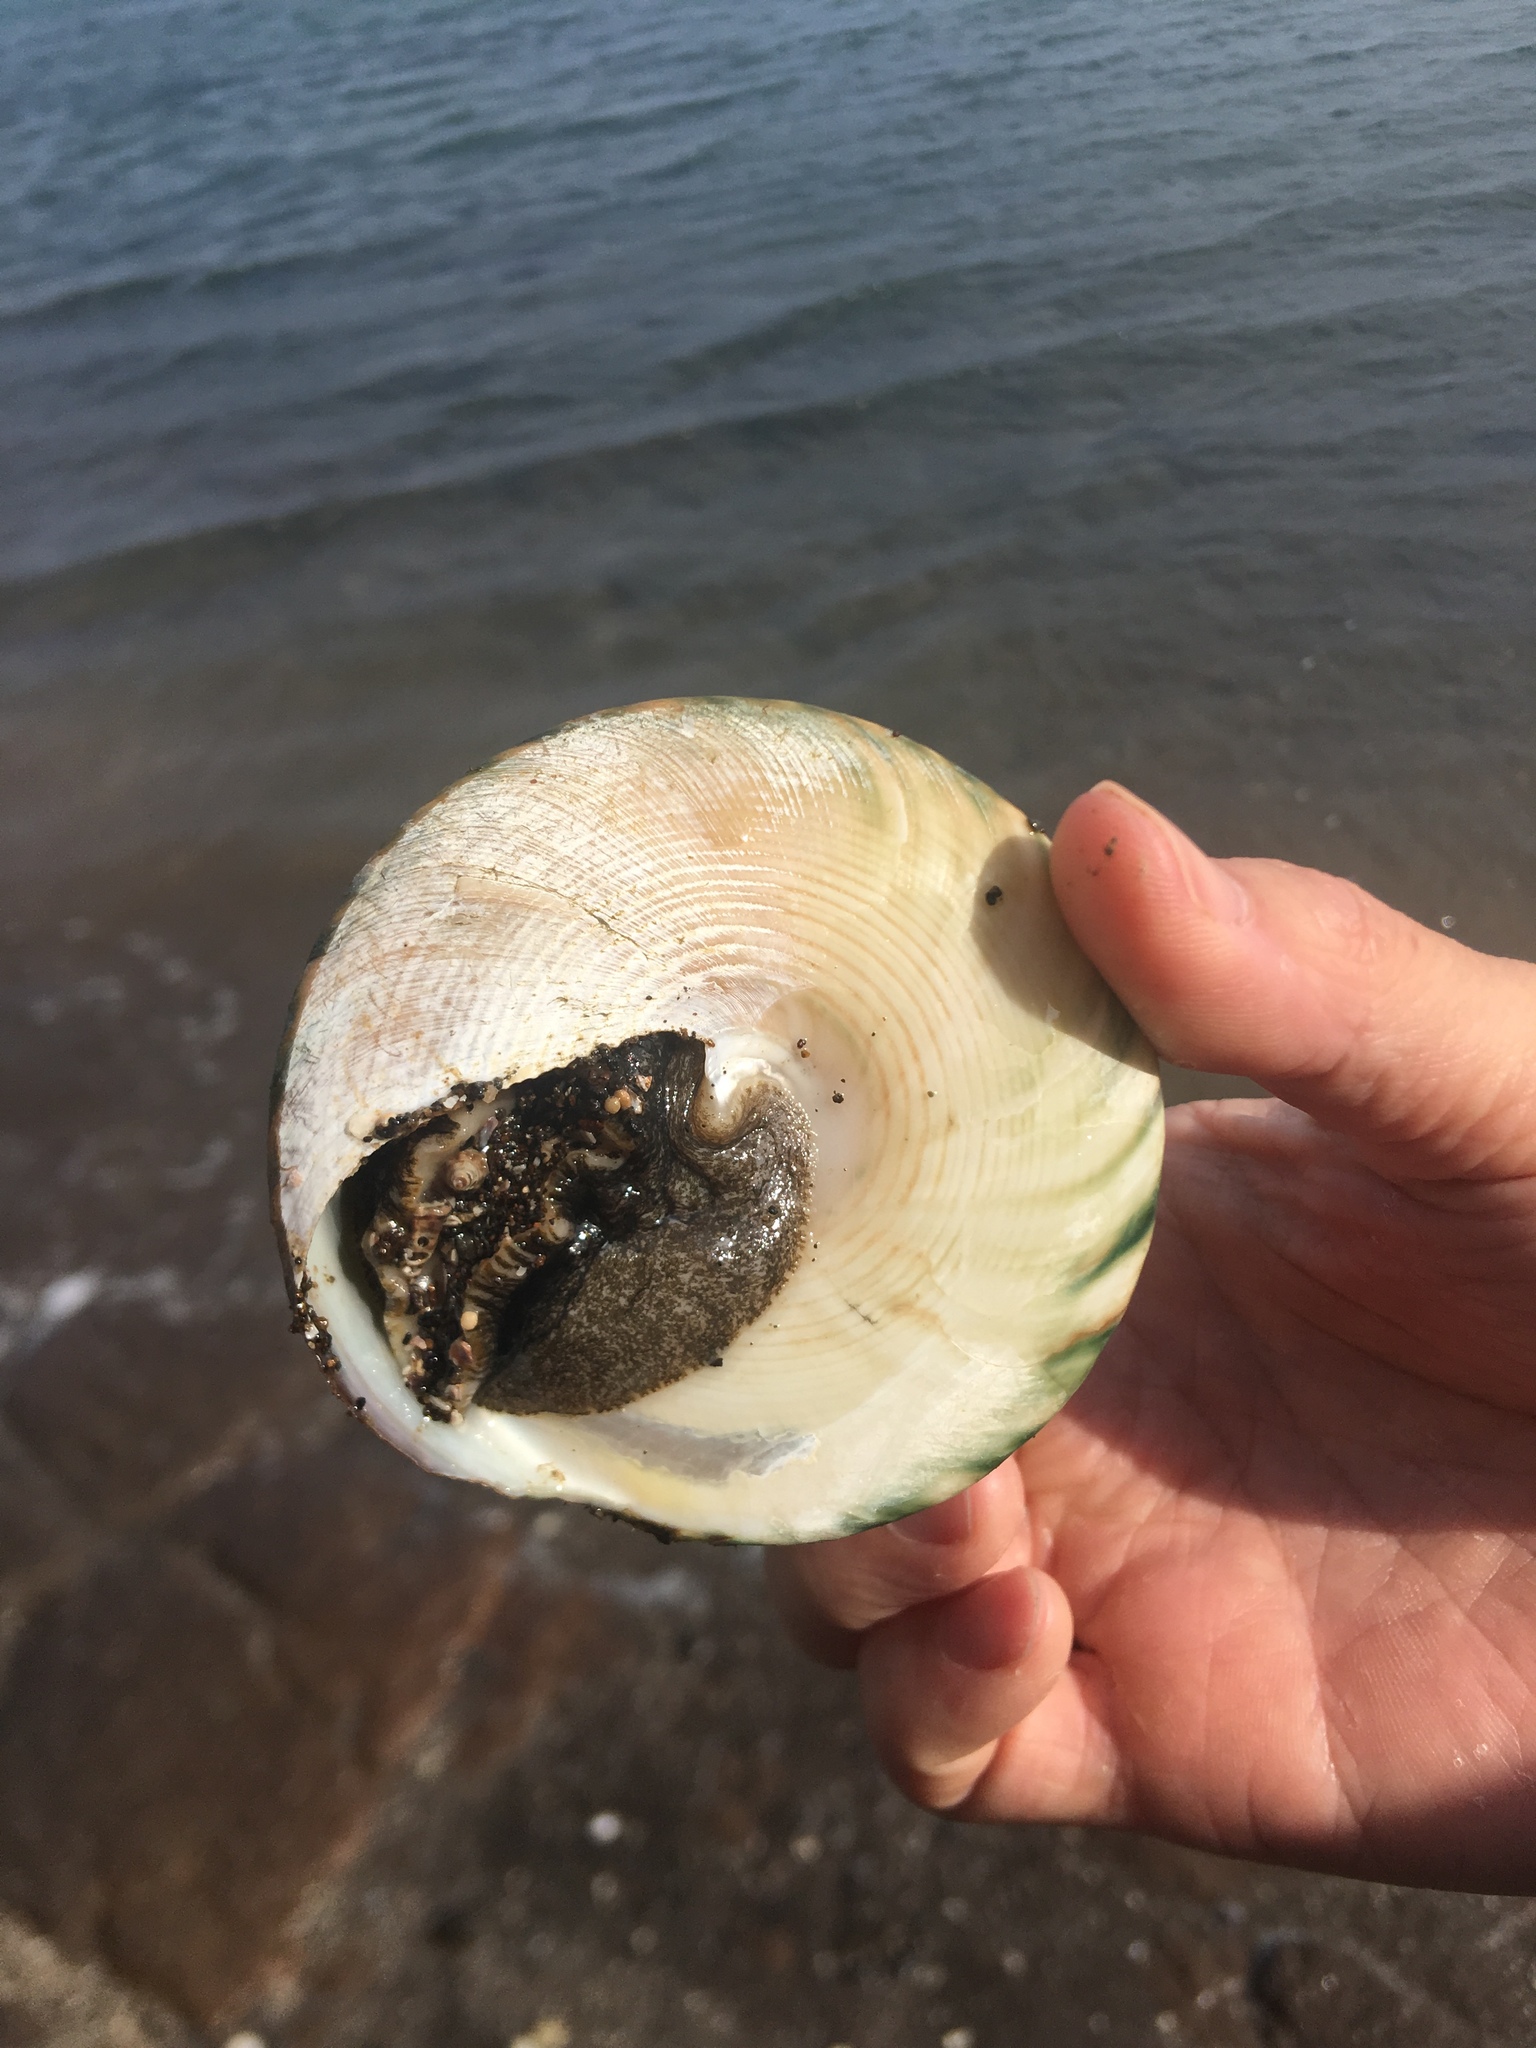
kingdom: Animalia
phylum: Mollusca
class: Gastropoda
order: Trochida
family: Tegulidae
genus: Tectus
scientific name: Tectus pyramis
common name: Pyramid top
